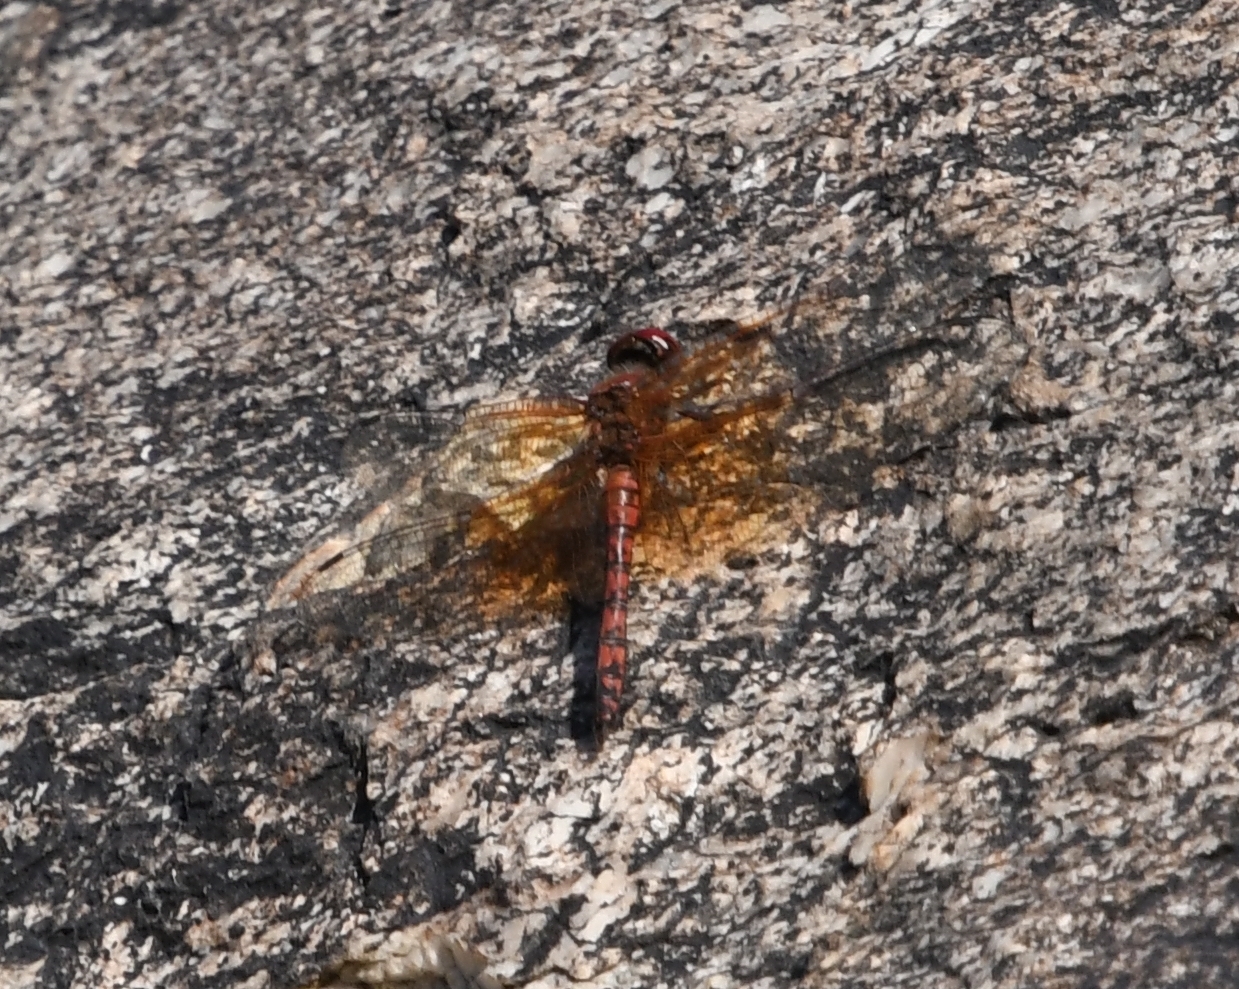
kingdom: Animalia
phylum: Arthropoda
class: Insecta
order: Odonata
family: Libellulidae
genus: Paltothemis
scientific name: Paltothemis lineatipes
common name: Red rock skimmer
